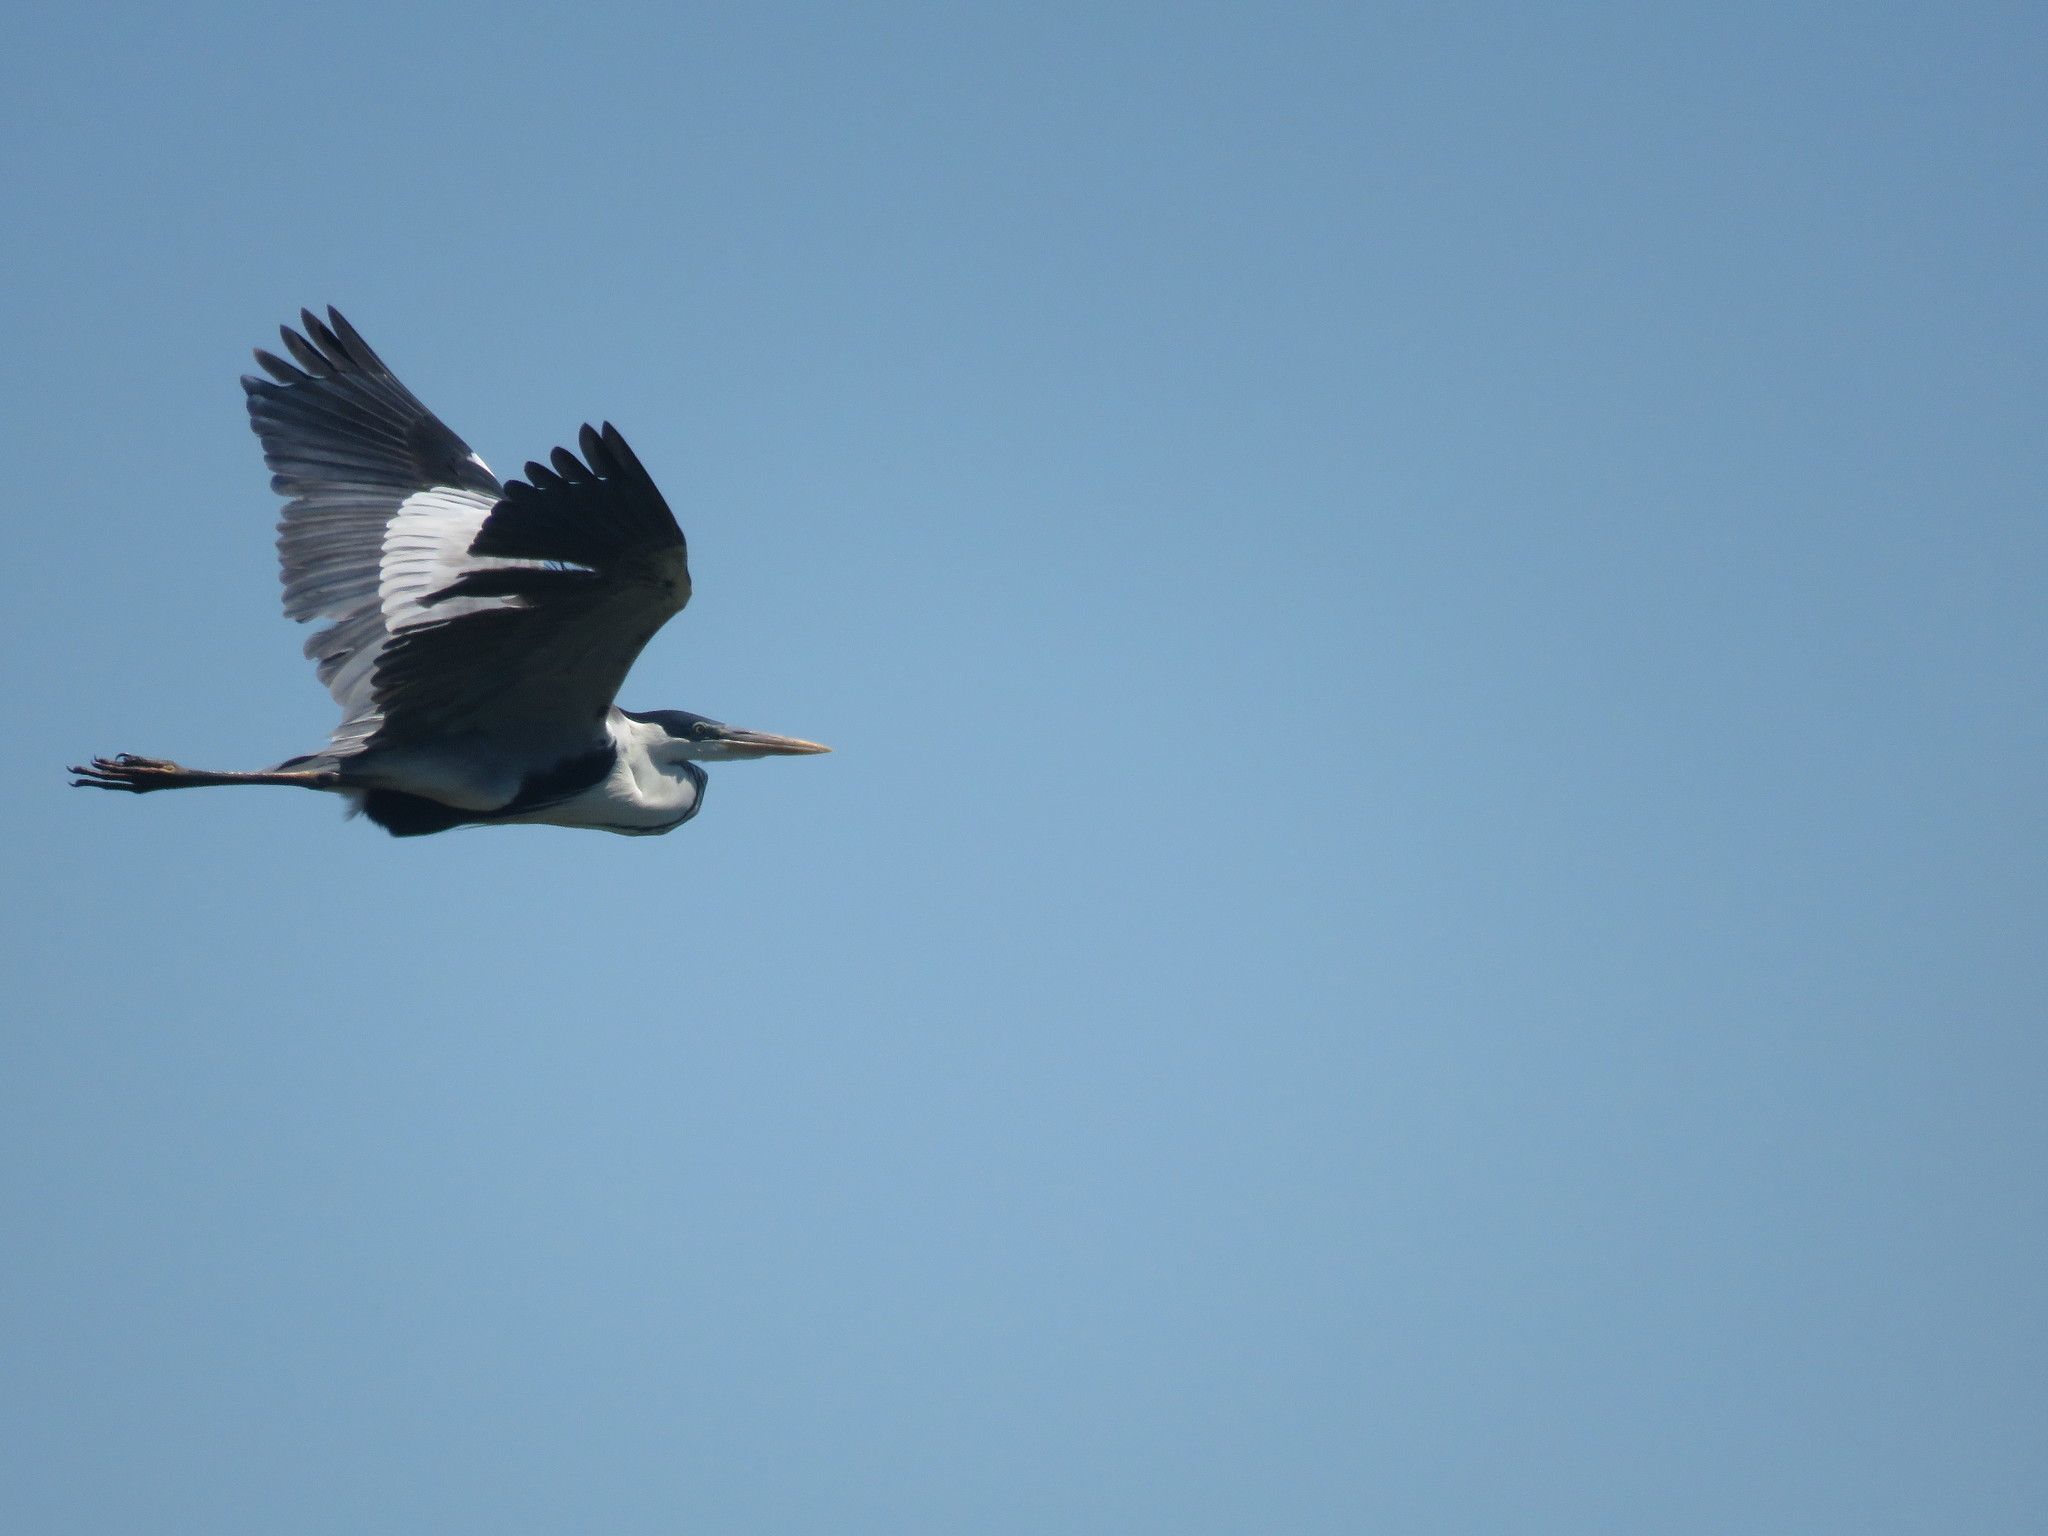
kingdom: Animalia
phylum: Chordata
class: Aves
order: Pelecaniformes
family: Ardeidae
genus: Ardea
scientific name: Ardea cocoi
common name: Cocoi heron
